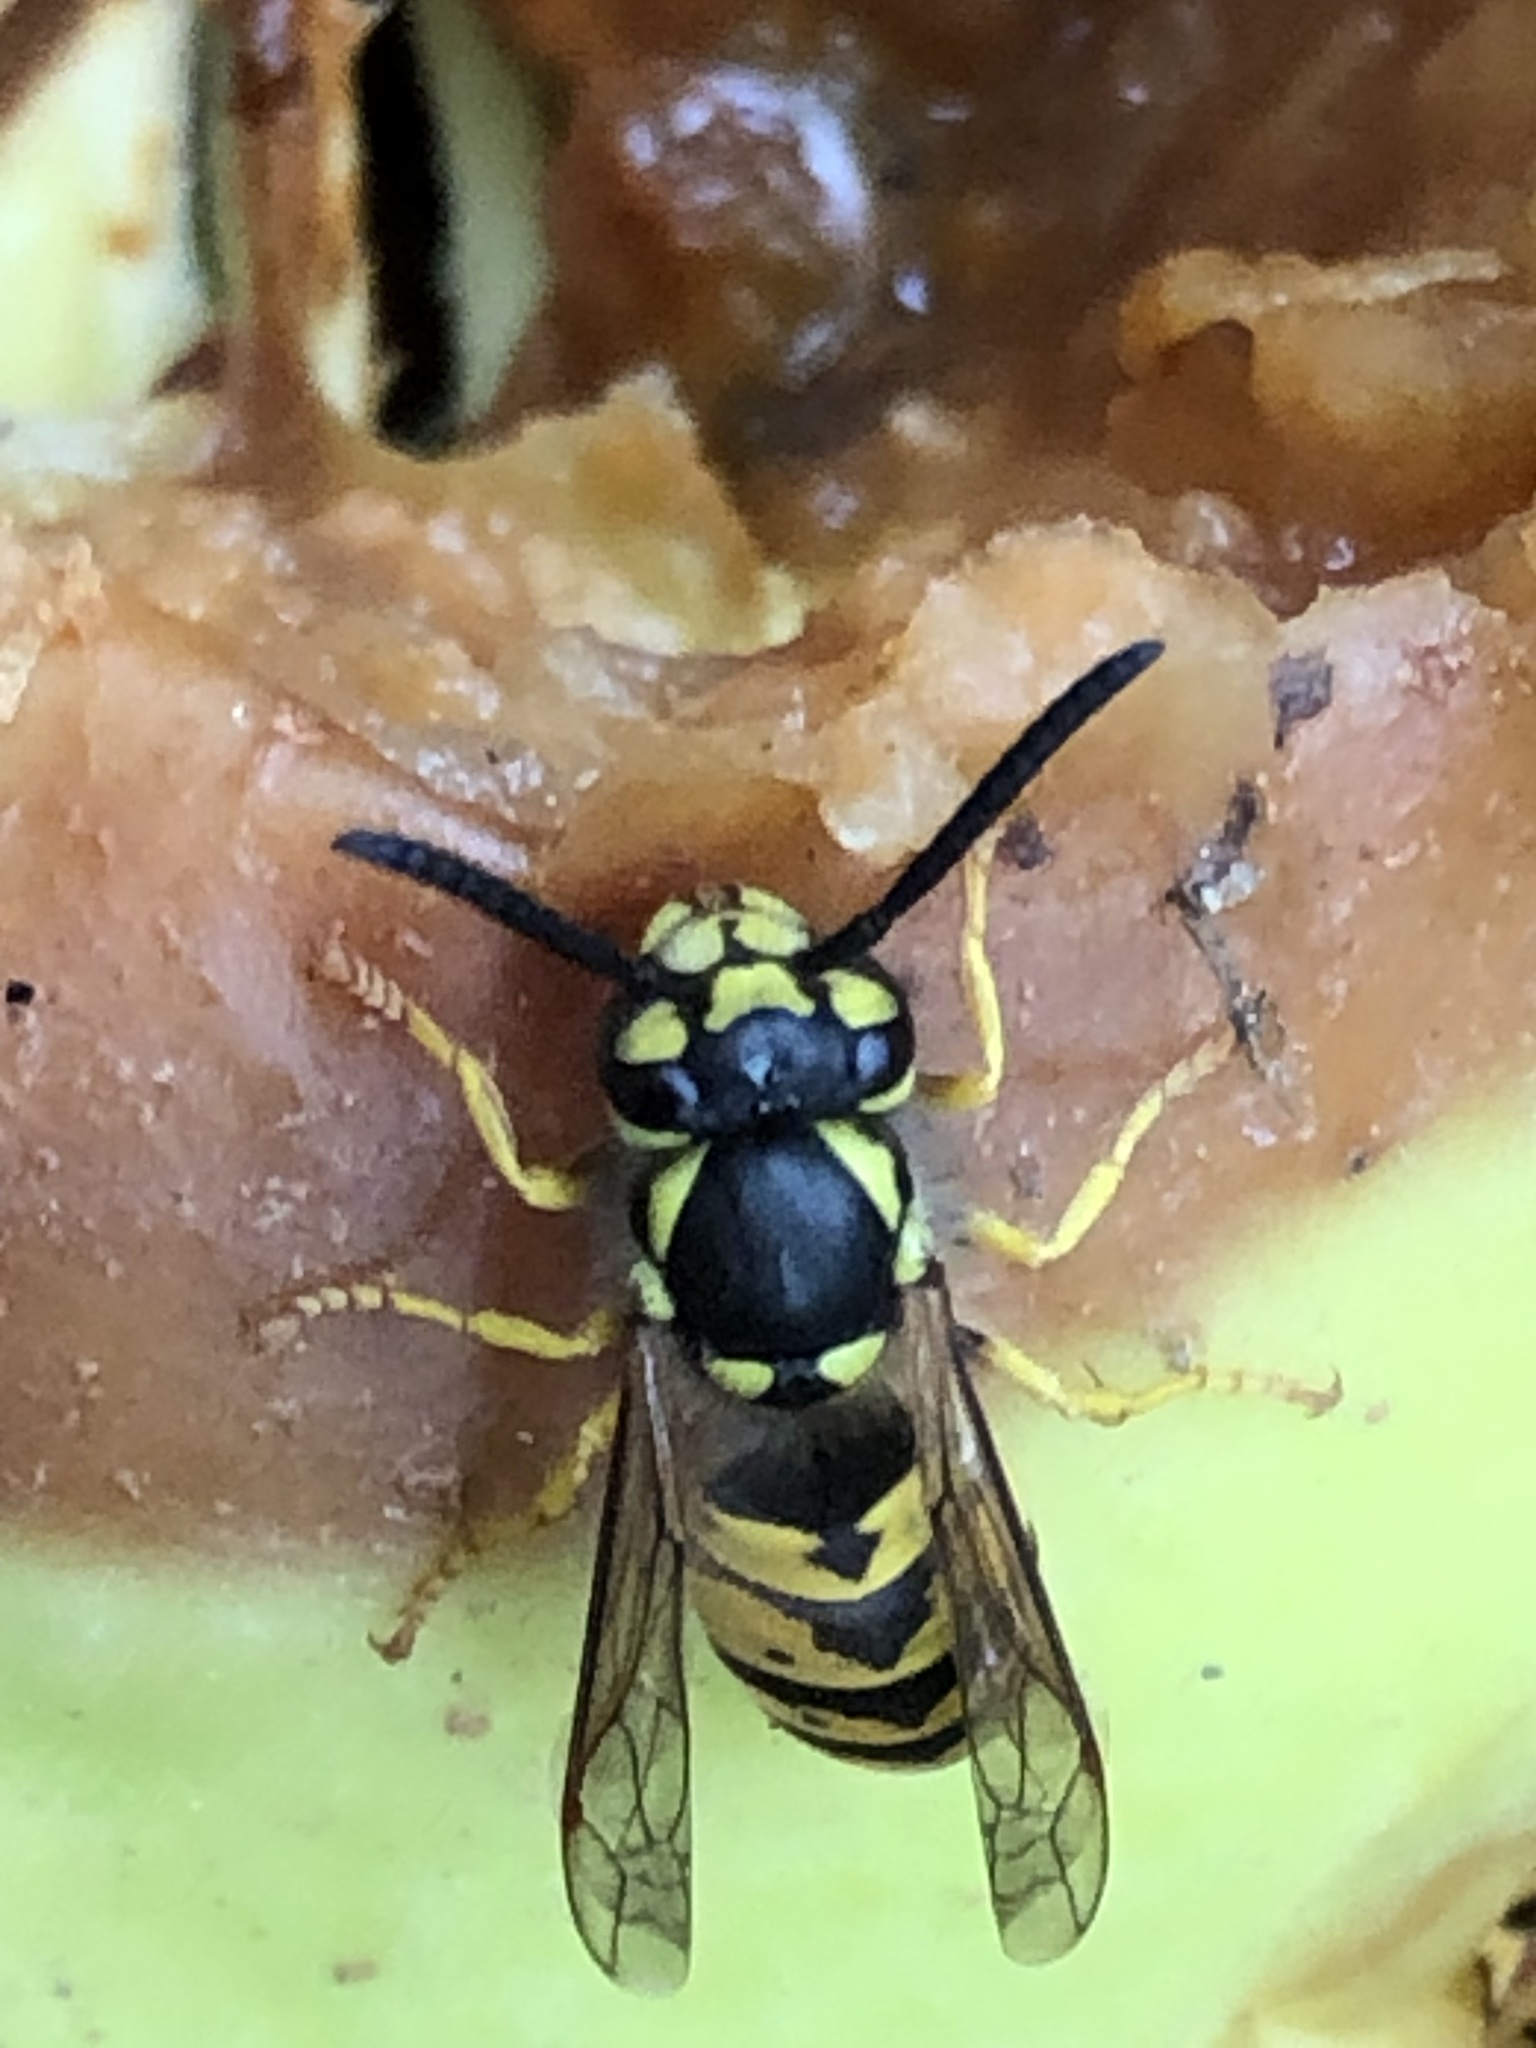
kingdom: Animalia
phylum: Arthropoda
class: Insecta
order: Hymenoptera
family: Vespidae
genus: Vespula
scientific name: Vespula germanica
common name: German wasp
